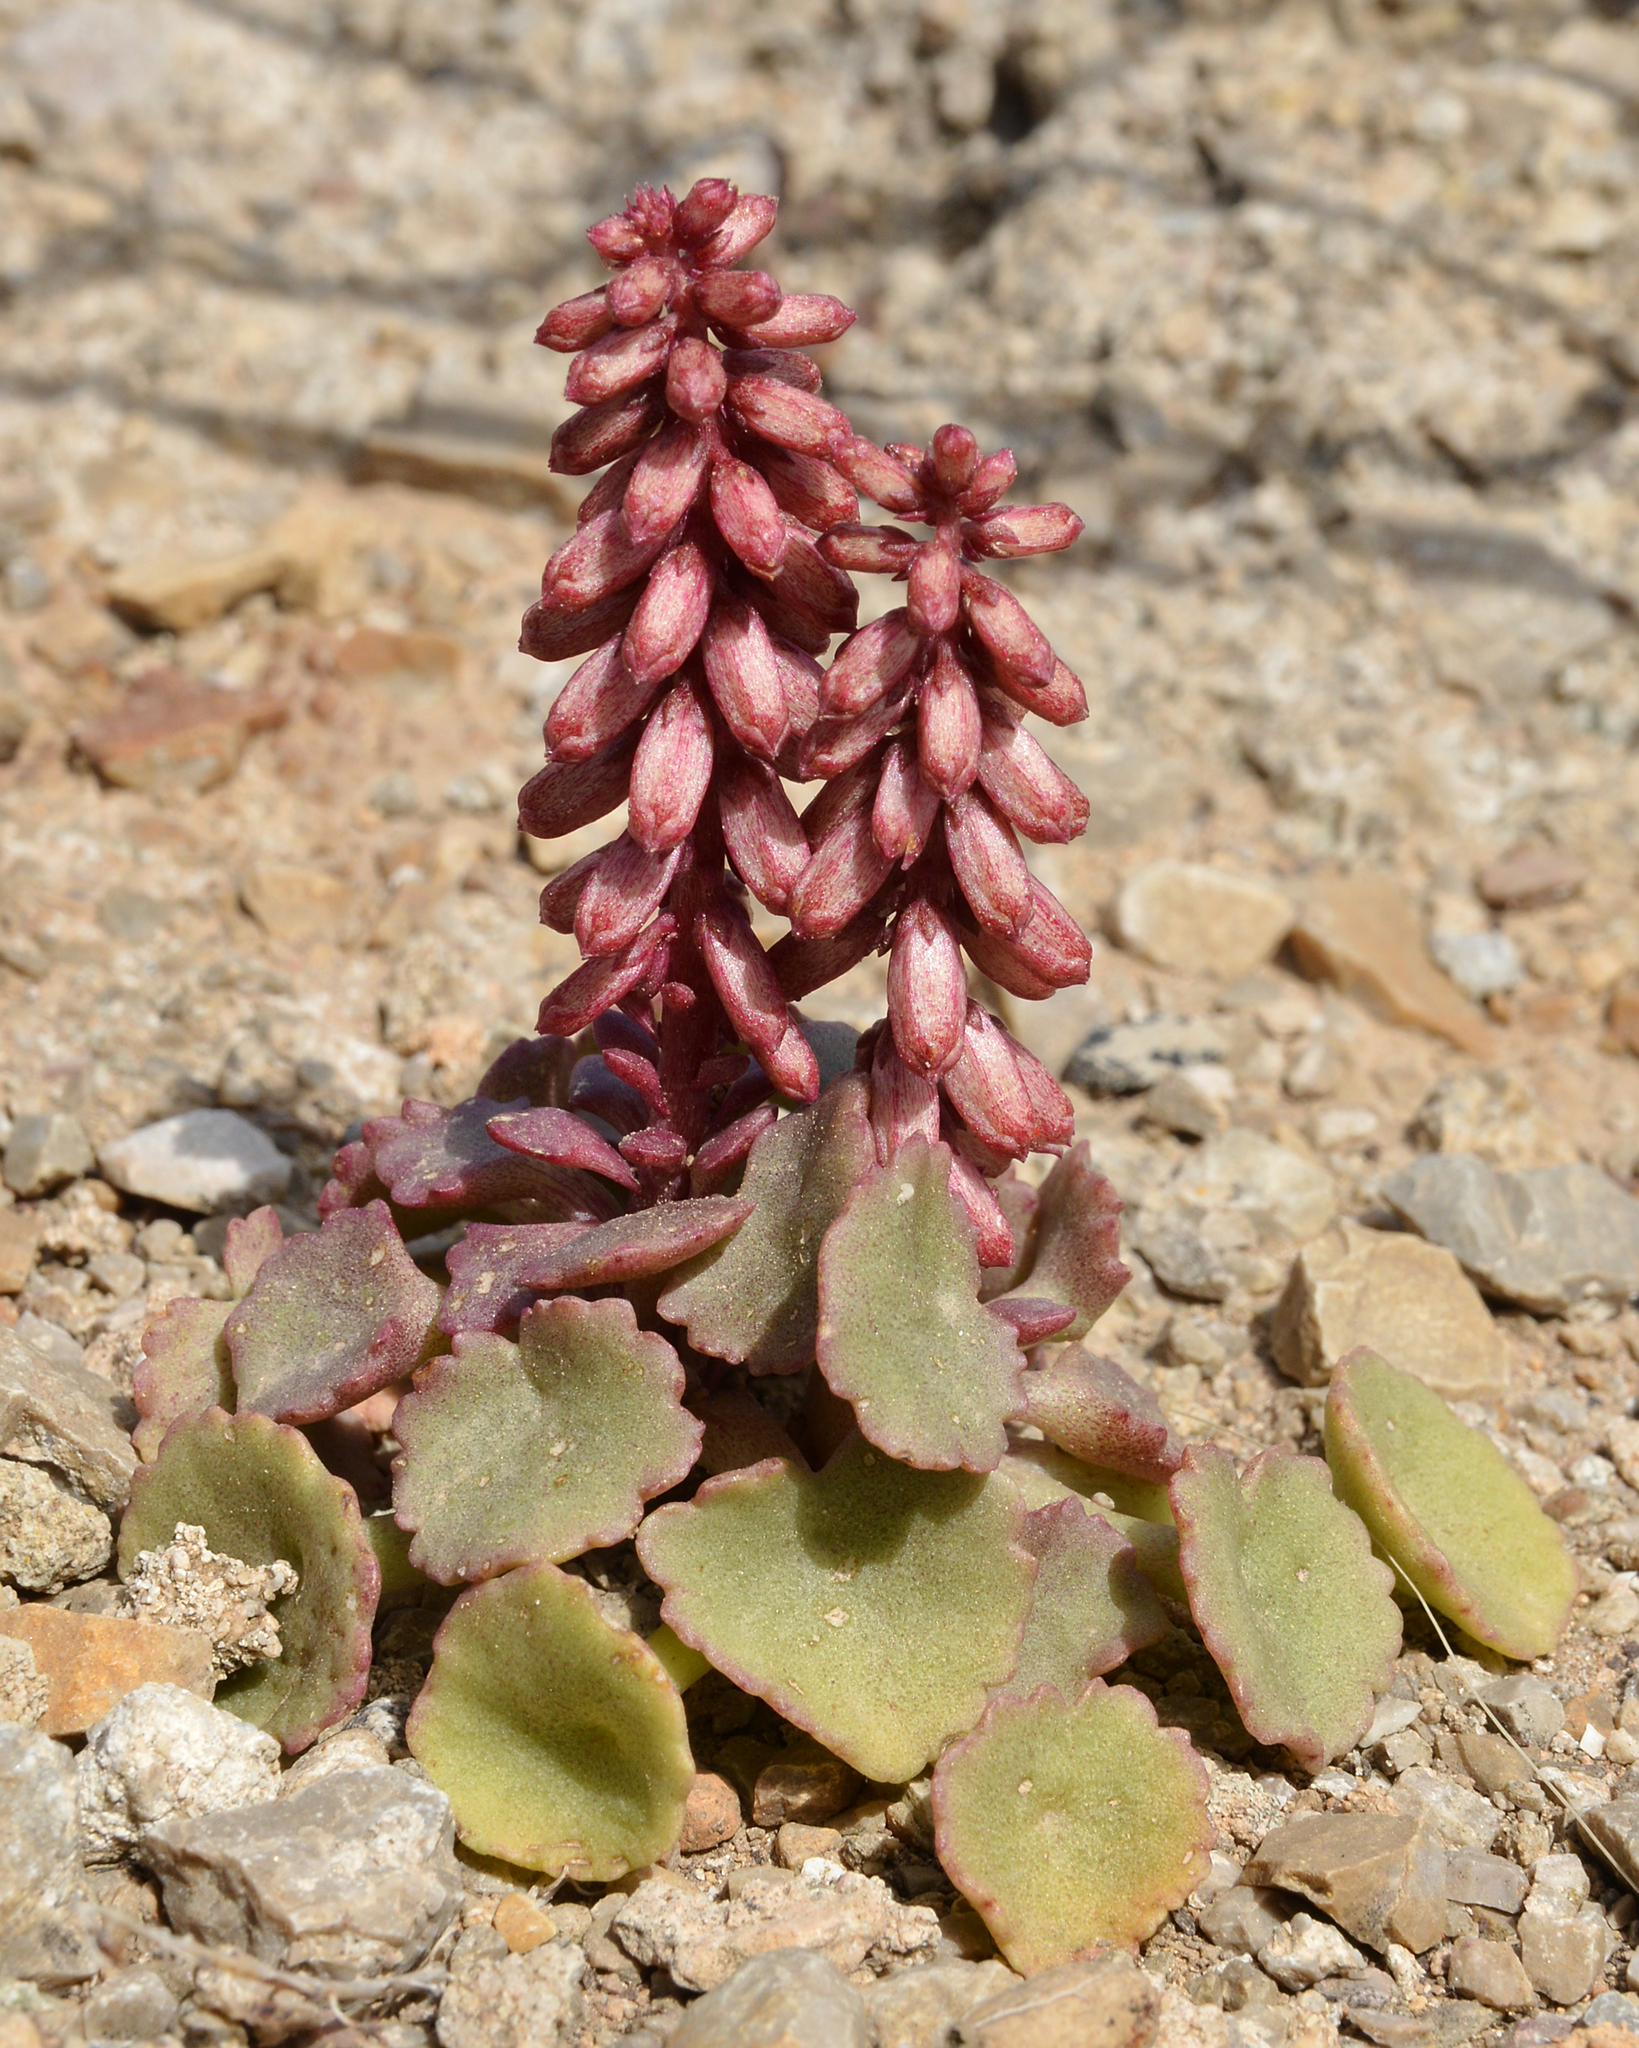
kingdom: Plantae
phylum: Tracheophyta
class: Magnoliopsida
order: Saxifragales
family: Crassulaceae
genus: Umbilicus
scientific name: Umbilicus rupestris
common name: Navelwort
